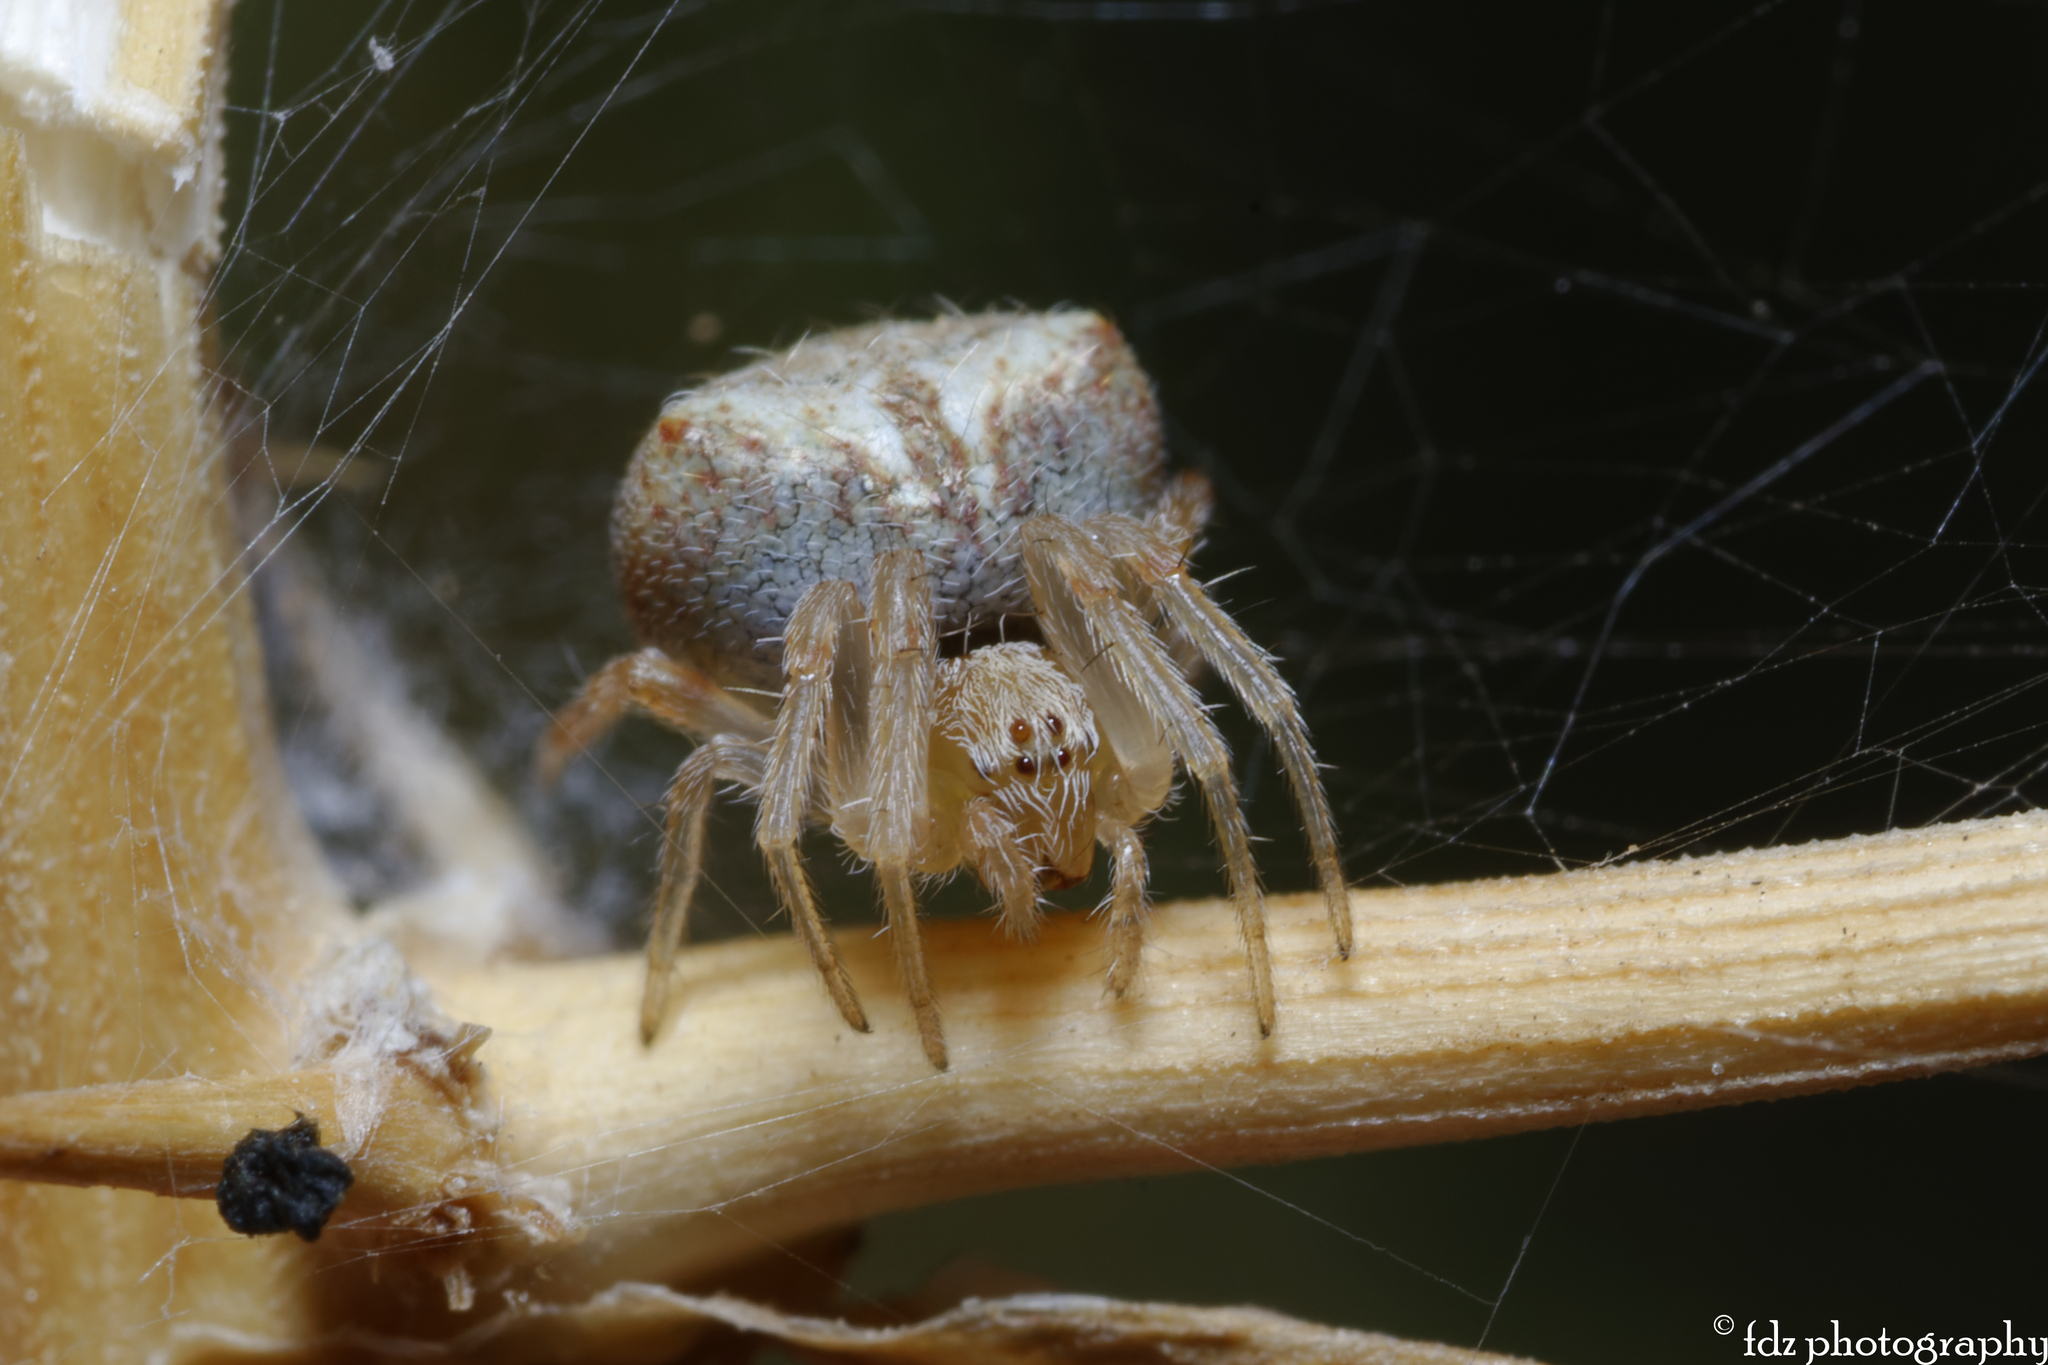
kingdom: Animalia
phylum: Arthropoda
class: Arachnida
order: Araneae
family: Araneidae
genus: Araneus
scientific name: Araneus angulatus
